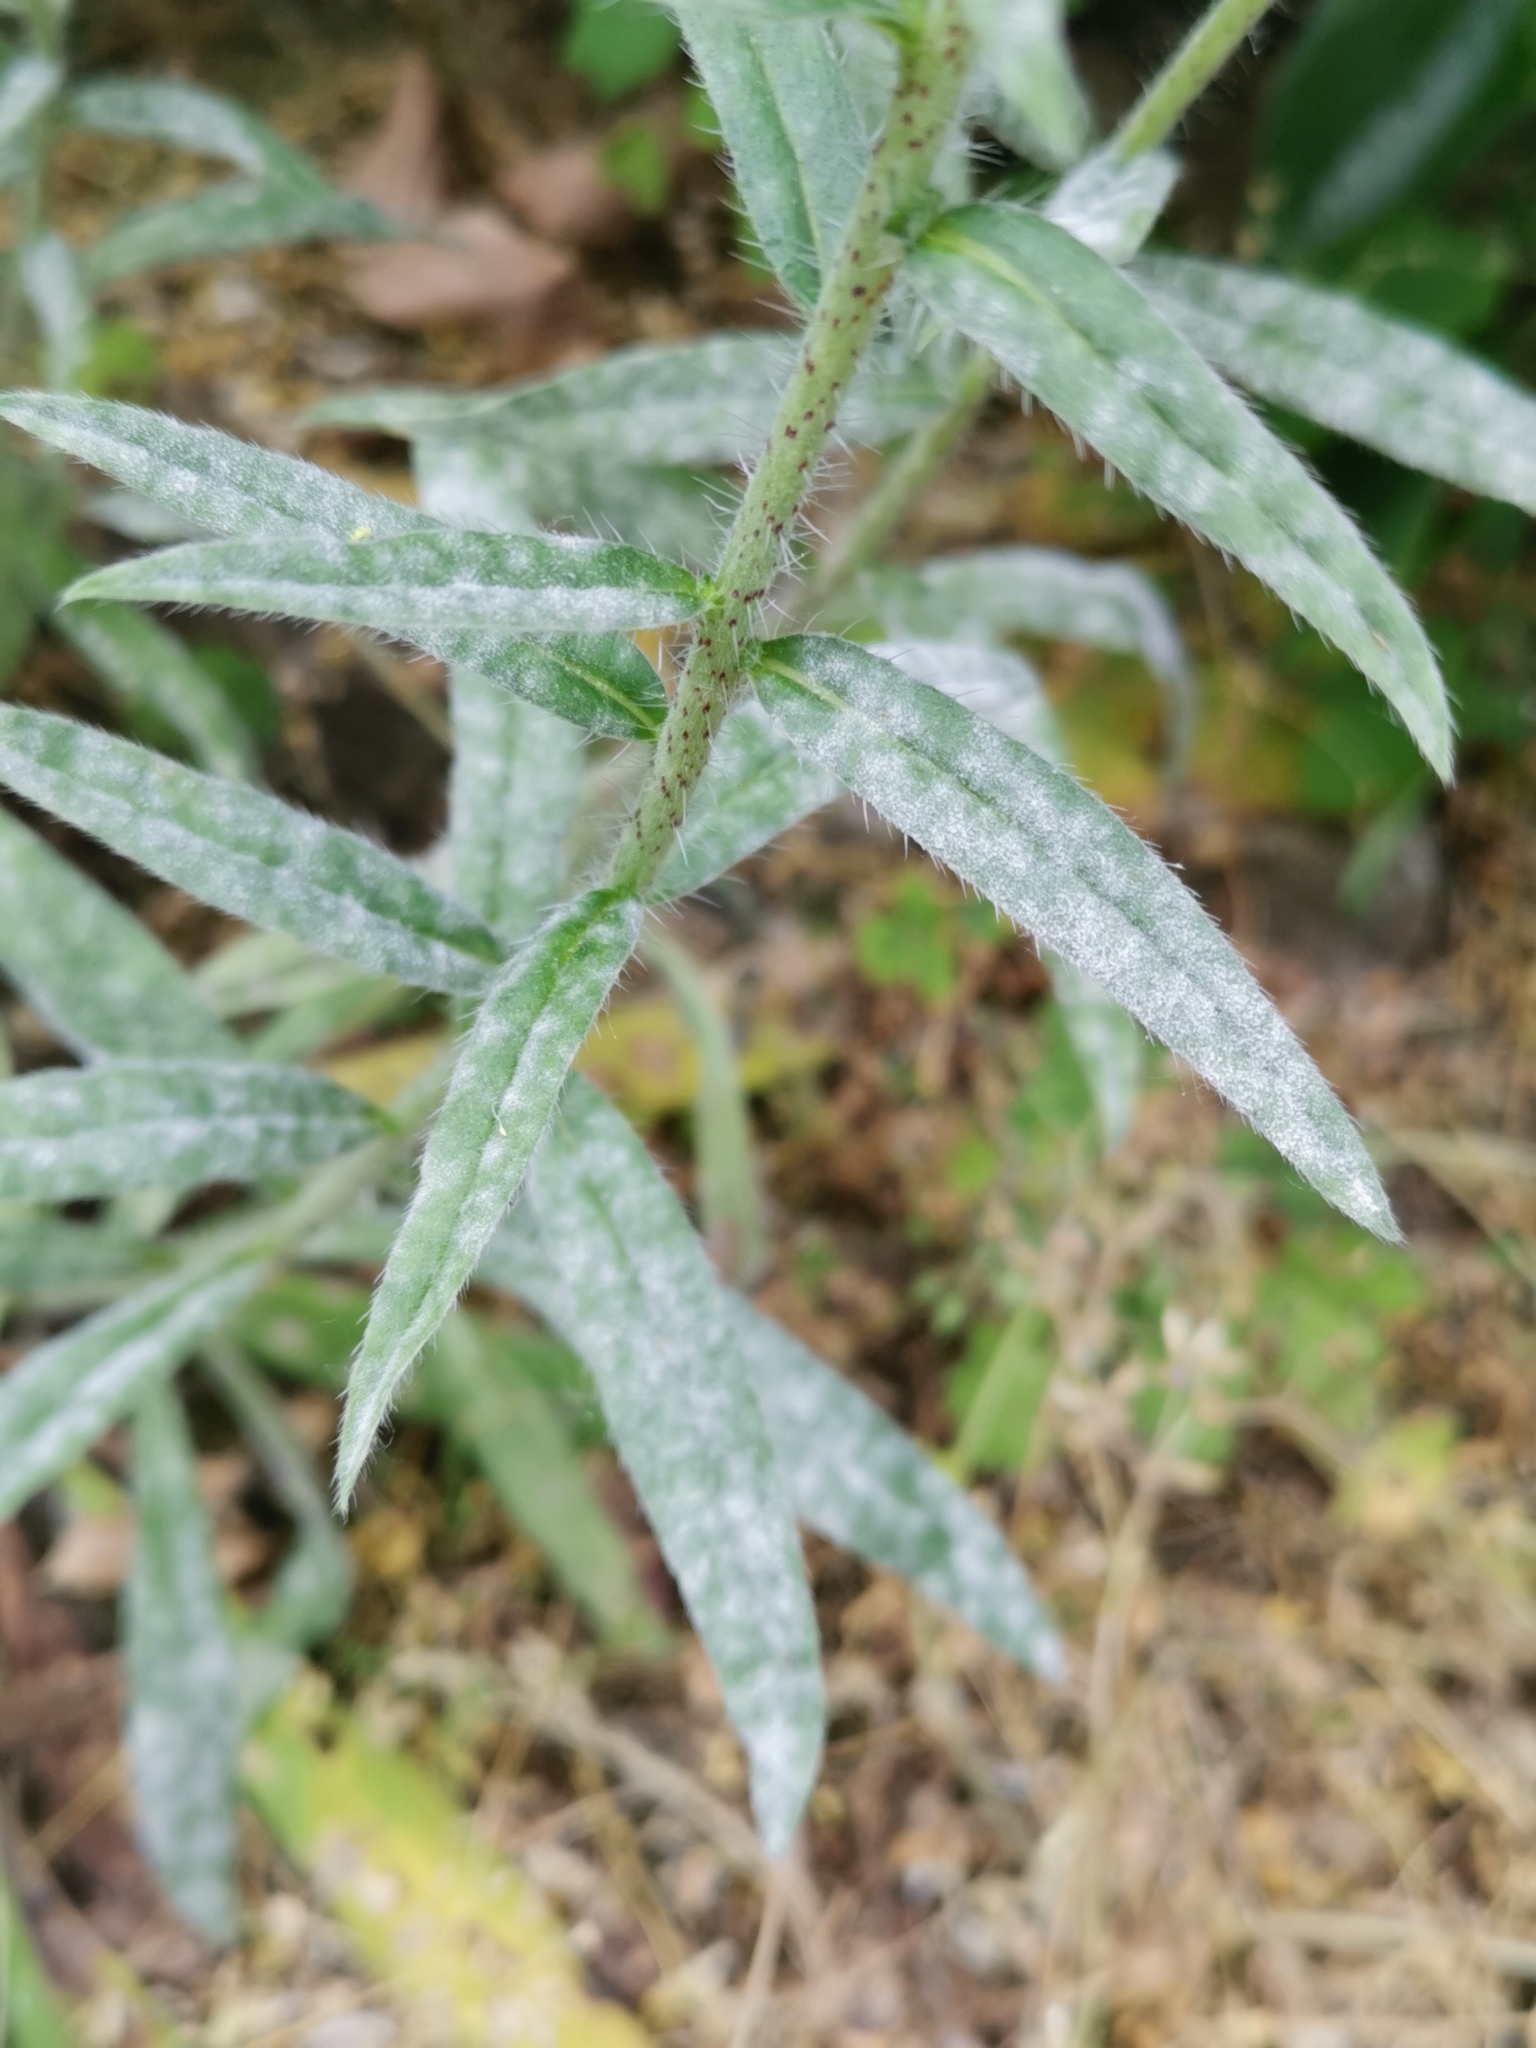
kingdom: Fungi
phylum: Ascomycota
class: Leotiomycetes
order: Helotiales
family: Erysiphaceae
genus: Golovinomyces
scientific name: Golovinomyces asperifolii
